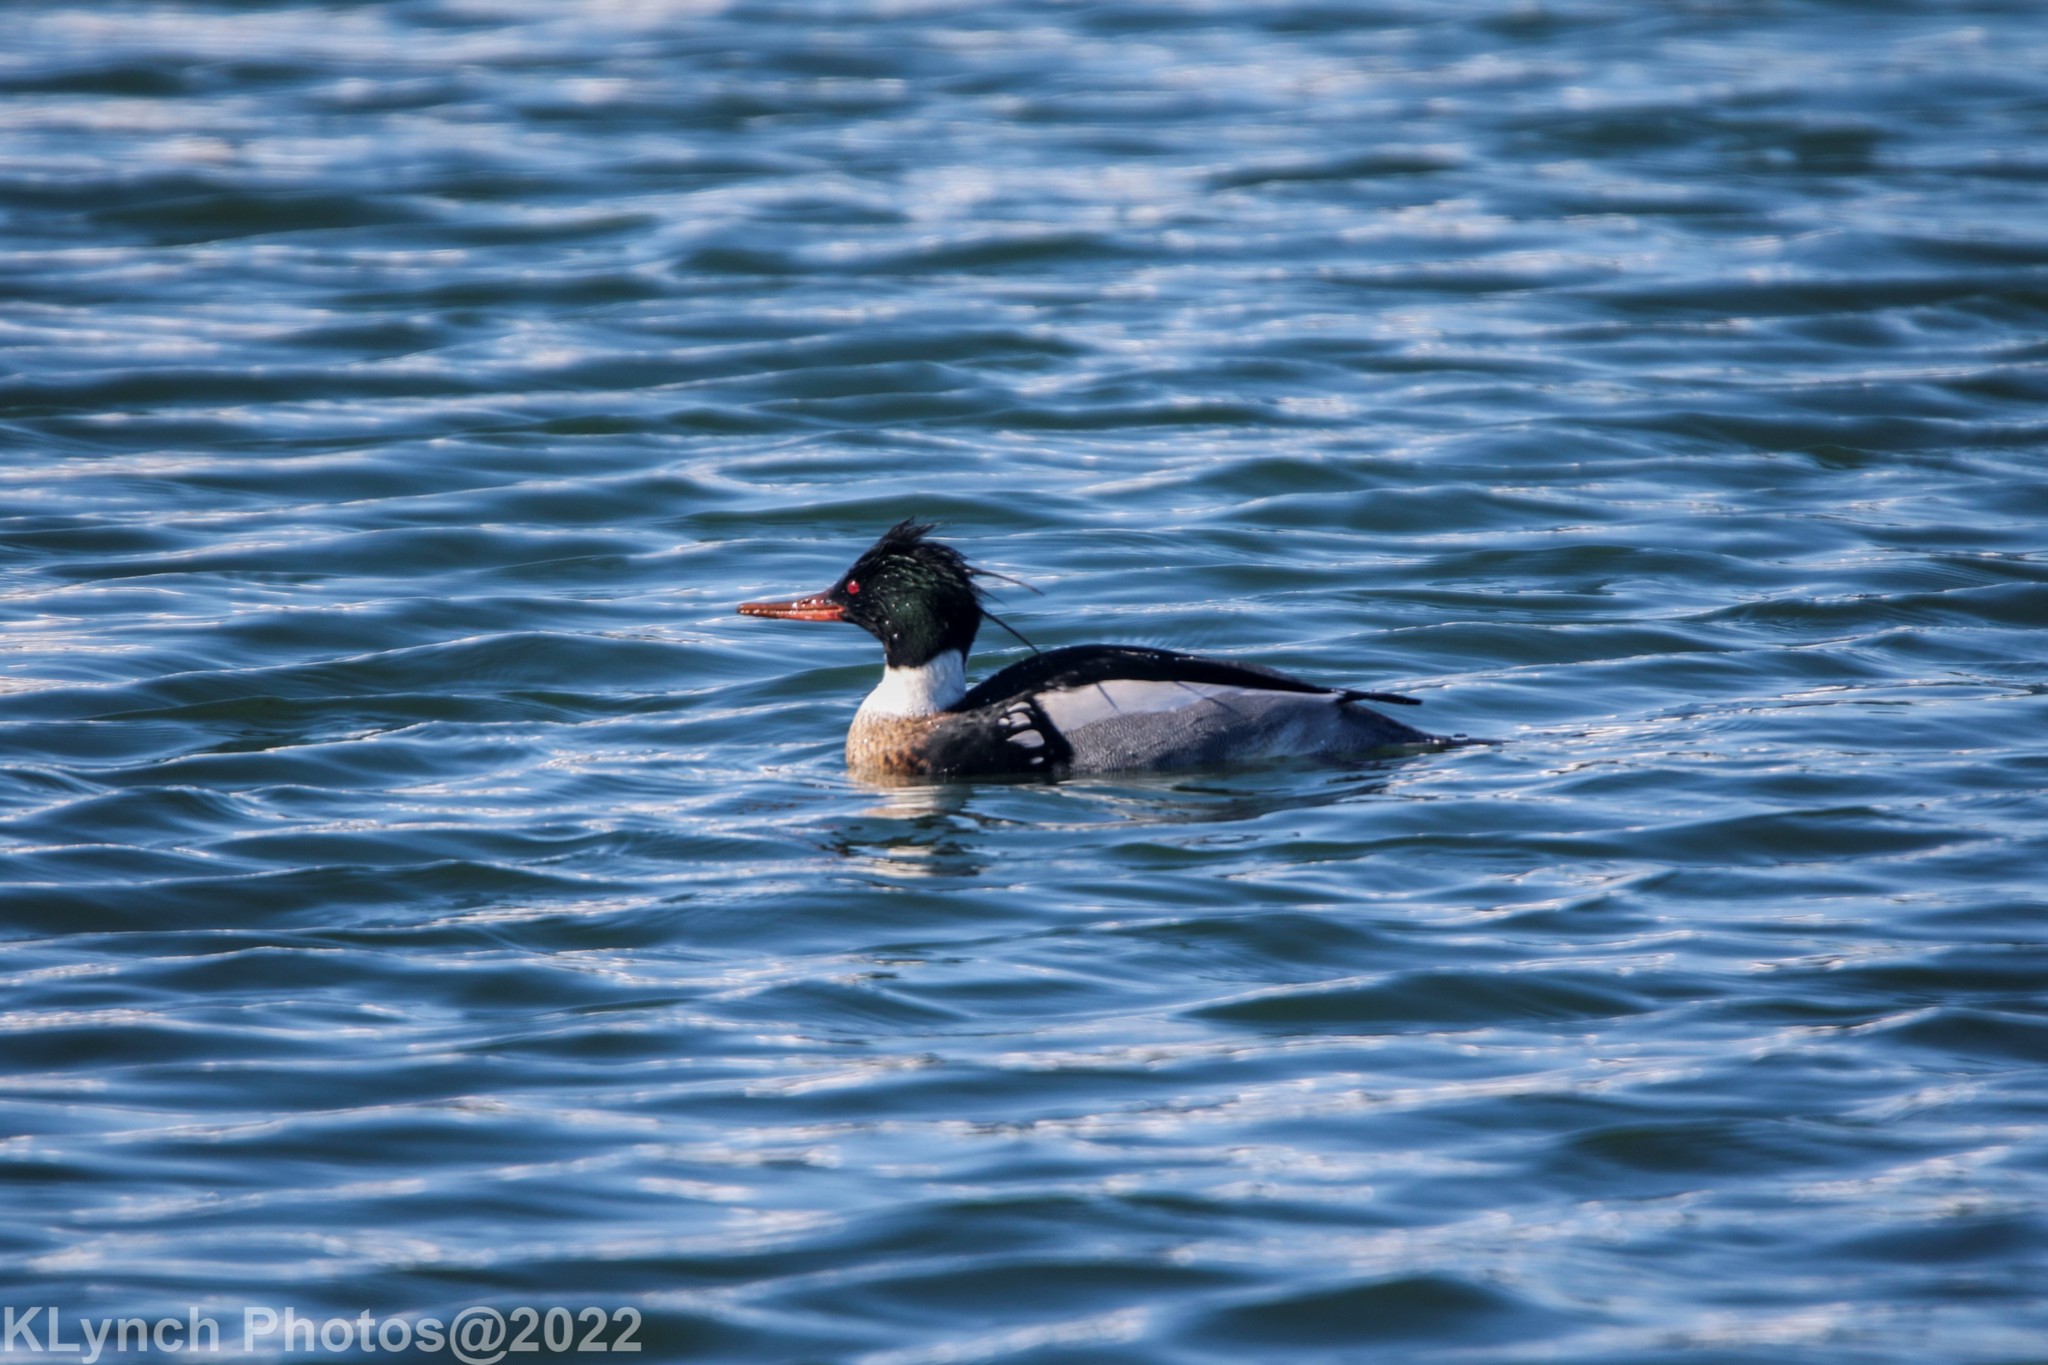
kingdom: Animalia
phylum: Chordata
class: Aves
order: Anseriformes
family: Anatidae
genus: Mergus
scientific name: Mergus serrator
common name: Red-breasted merganser
